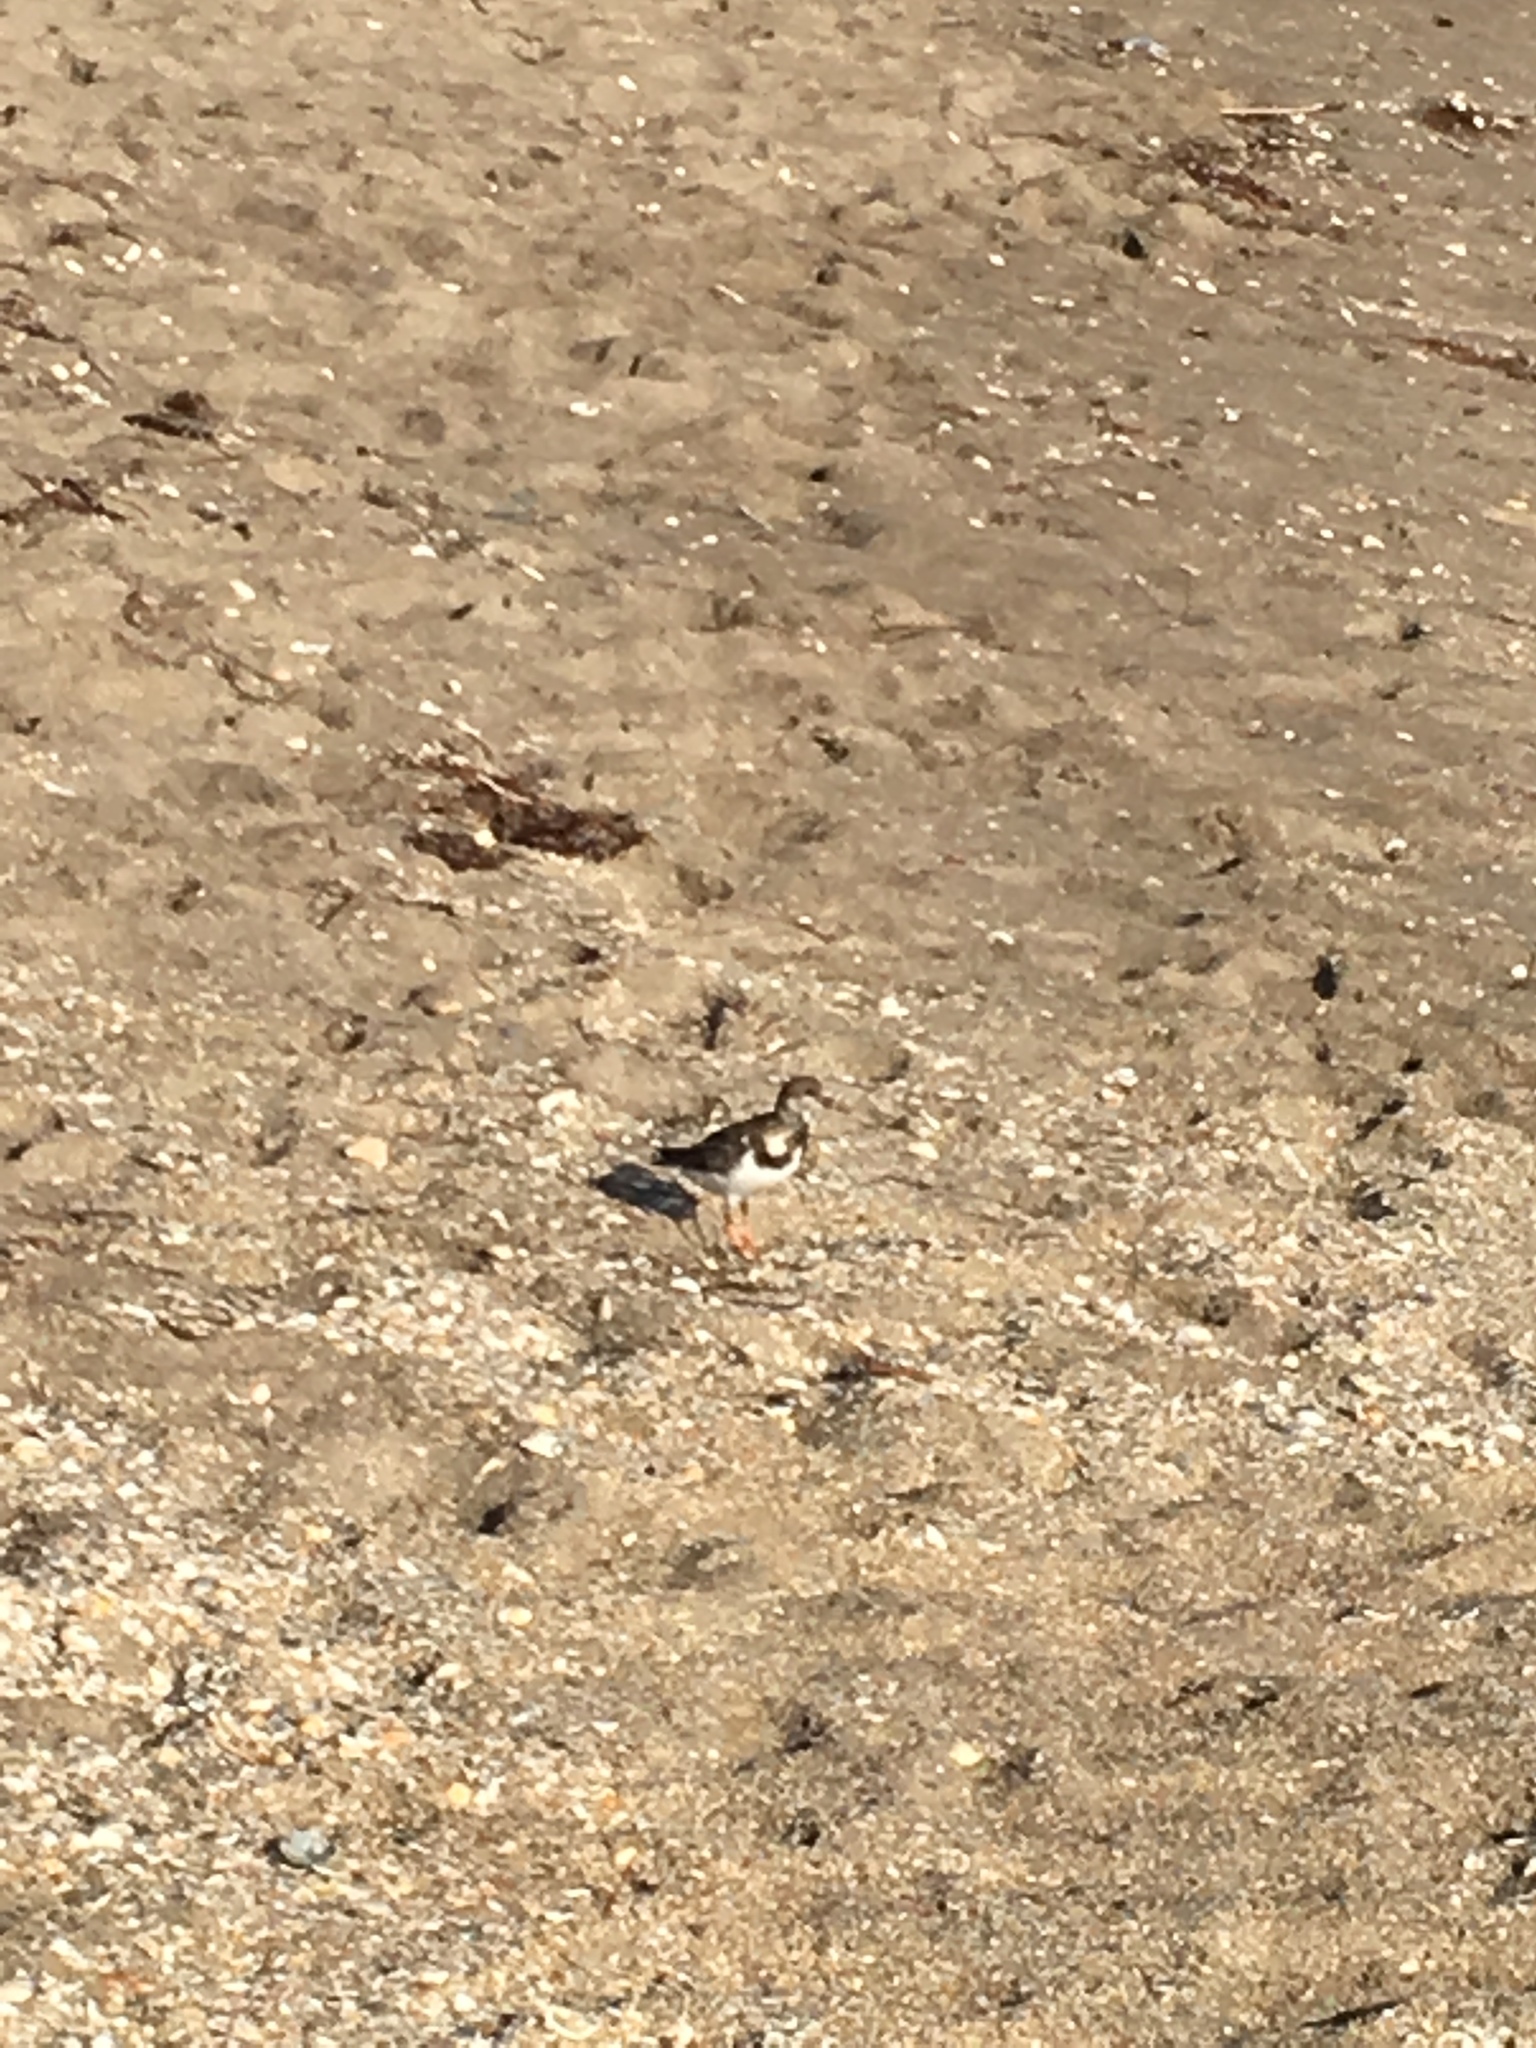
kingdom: Animalia
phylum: Chordata
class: Aves
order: Charadriiformes
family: Scolopacidae
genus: Arenaria
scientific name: Arenaria interpres
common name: Ruddy turnstone
